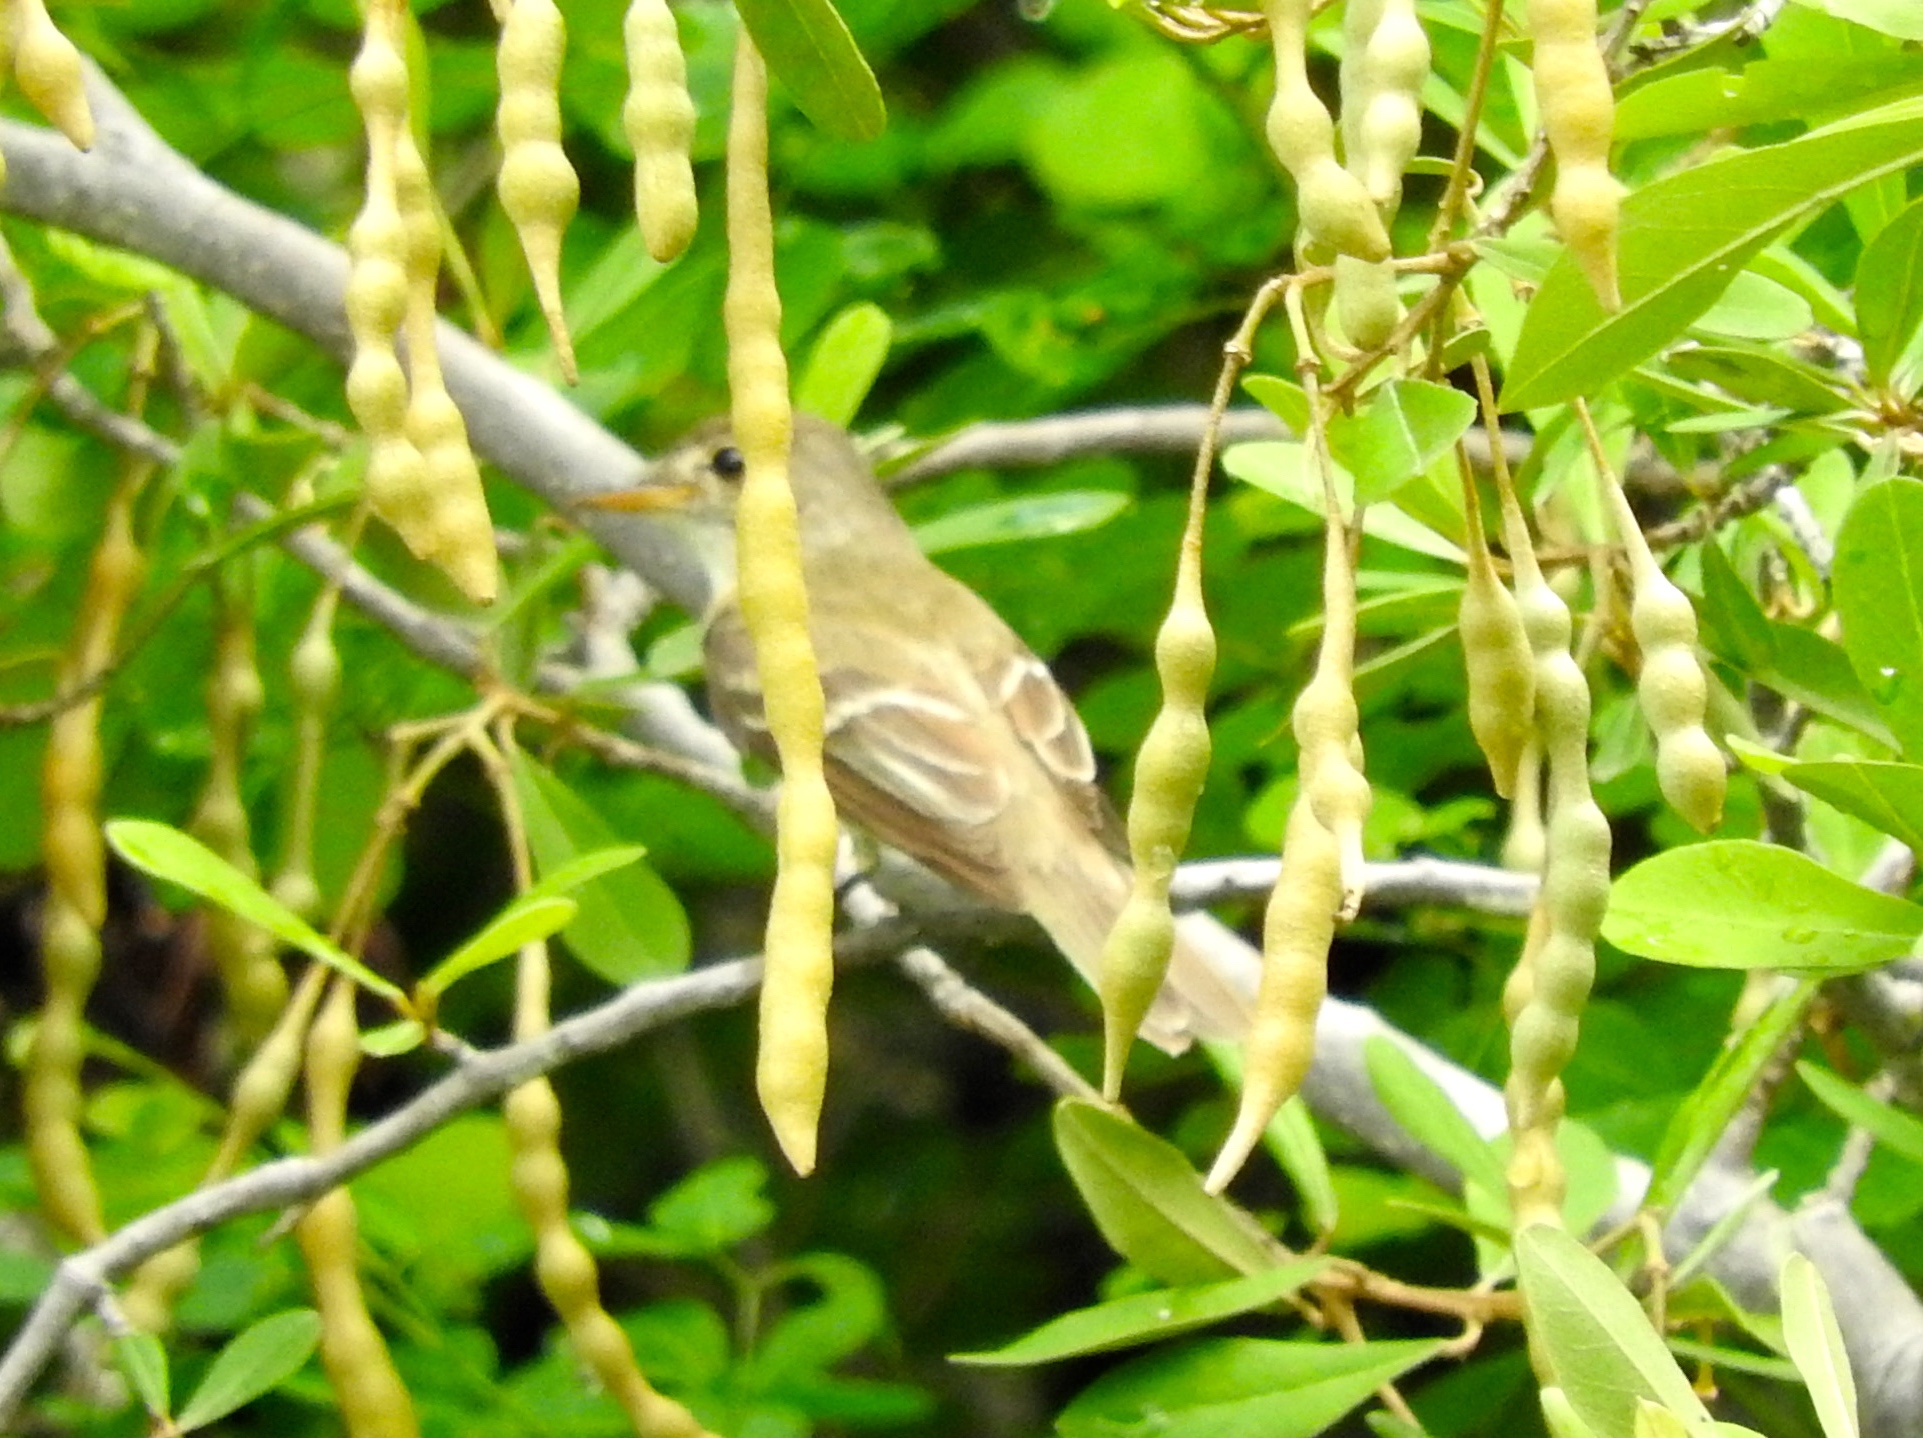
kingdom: Animalia
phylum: Chordata
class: Aves
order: Passeriformes
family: Tyrannidae
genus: Empidonax
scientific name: Empidonax traillii
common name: Willow flycatcher
